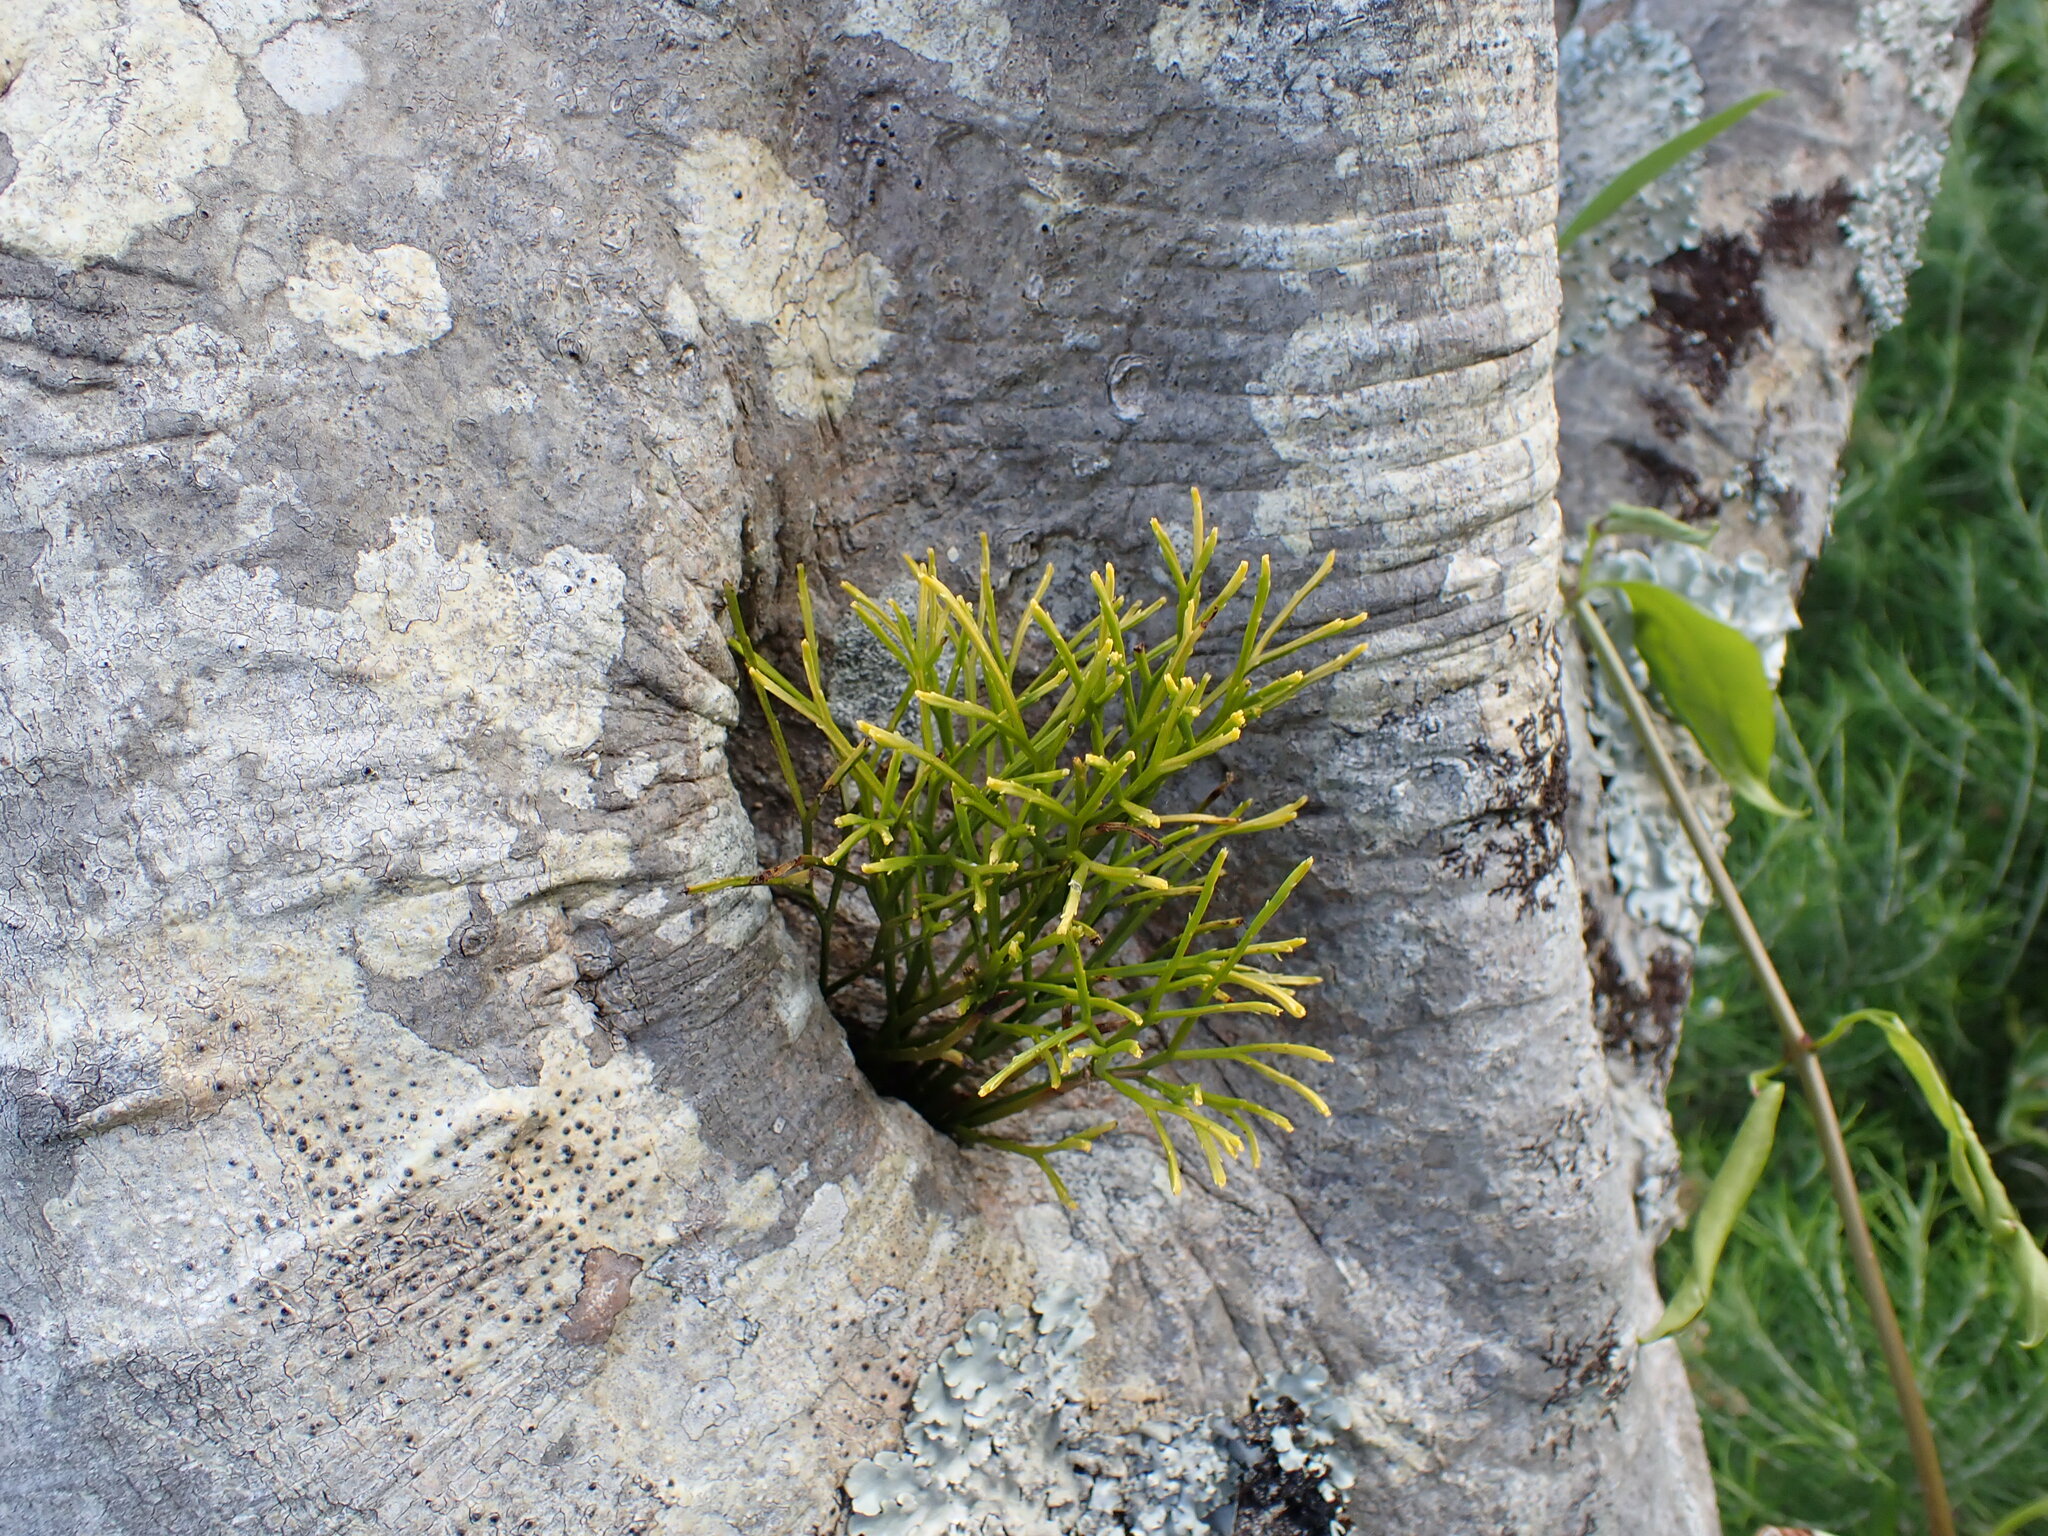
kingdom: Plantae
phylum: Tracheophyta
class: Polypodiopsida
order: Psilotales
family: Psilotaceae
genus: Psilotum
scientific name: Psilotum nudum
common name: Skeleton fork fern
